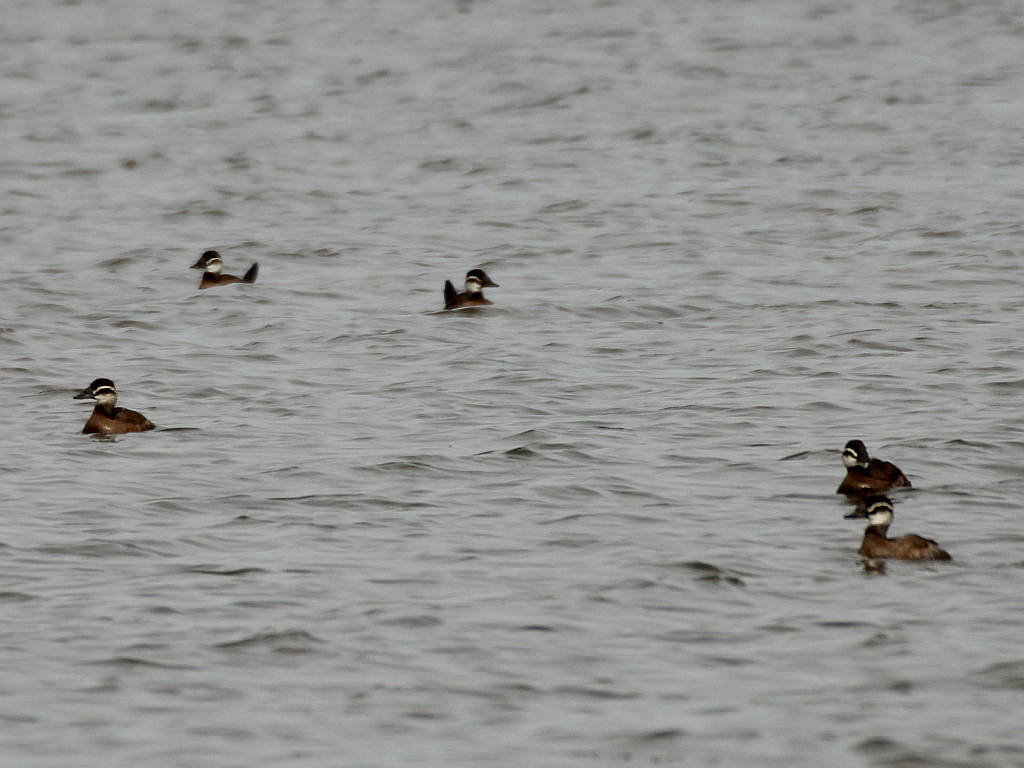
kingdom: Animalia
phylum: Chordata
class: Aves
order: Anseriformes
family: Anatidae
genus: Oxyura
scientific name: Oxyura leucocephala
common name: White-headed duck
